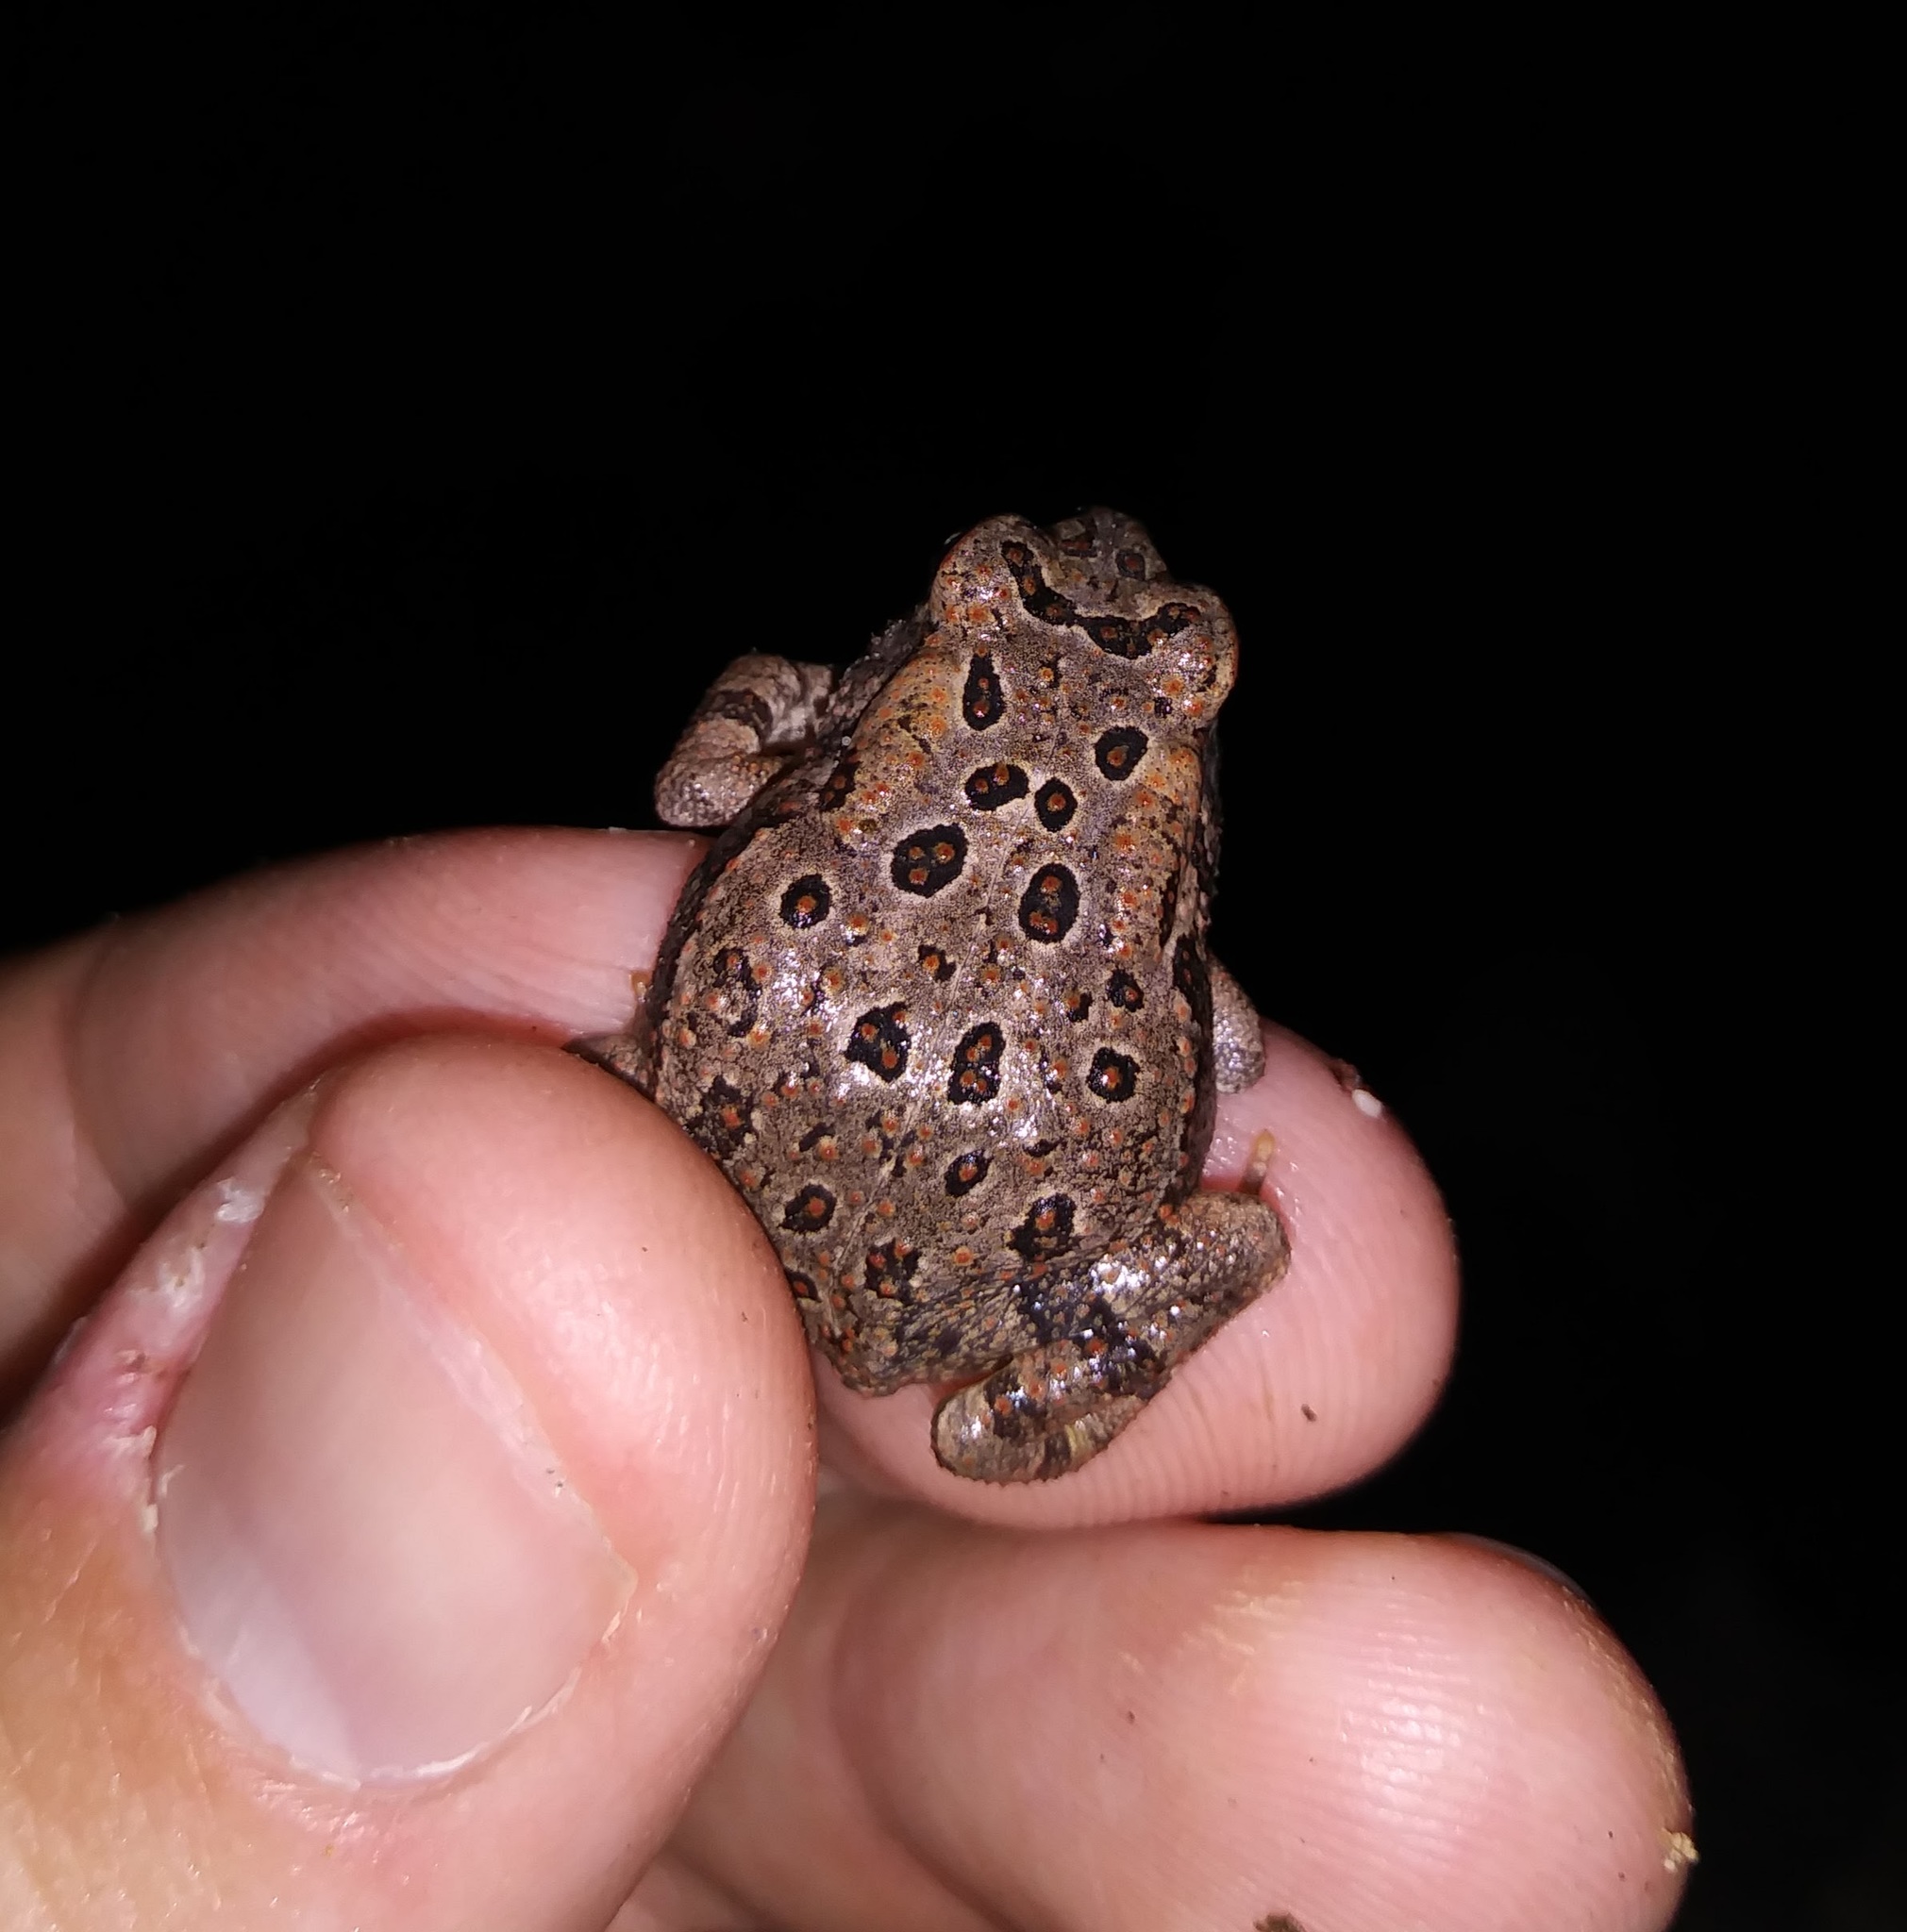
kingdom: Animalia
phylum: Chordata
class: Amphibia
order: Anura
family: Bufonidae
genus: Anaxyrus
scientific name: Anaxyrus fowleri
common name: Fowler's toad
